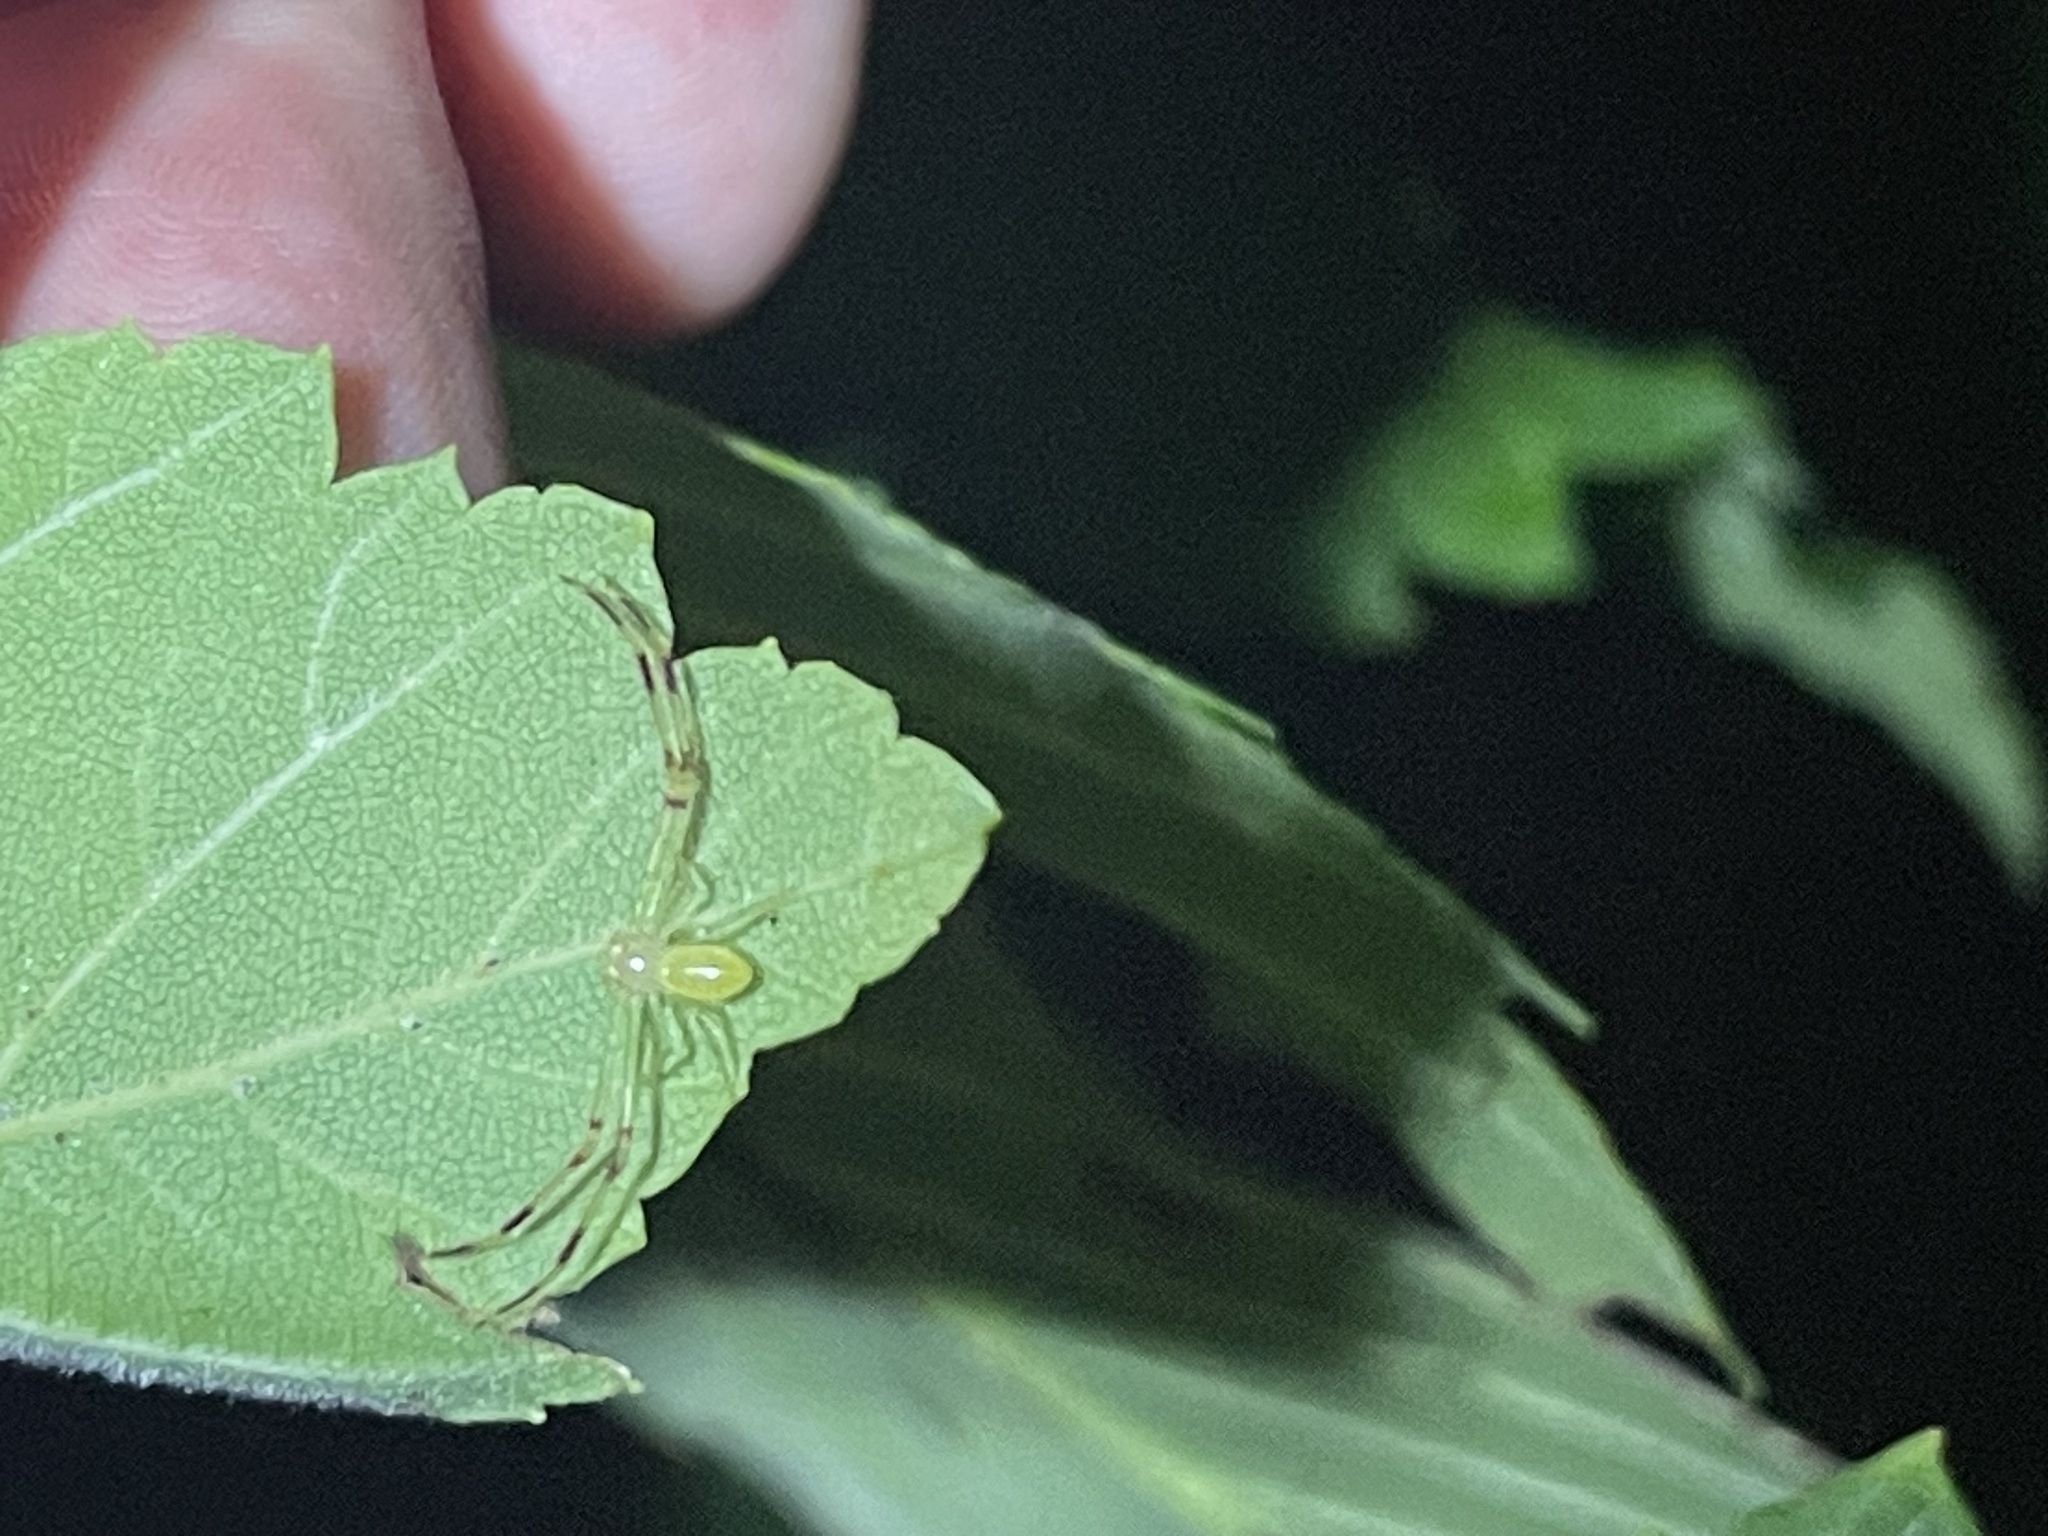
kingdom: Animalia
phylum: Arthropoda
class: Arachnida
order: Araneae
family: Thomisidae
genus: Misumessus
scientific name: Misumessus oblongus
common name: American green crab spider
